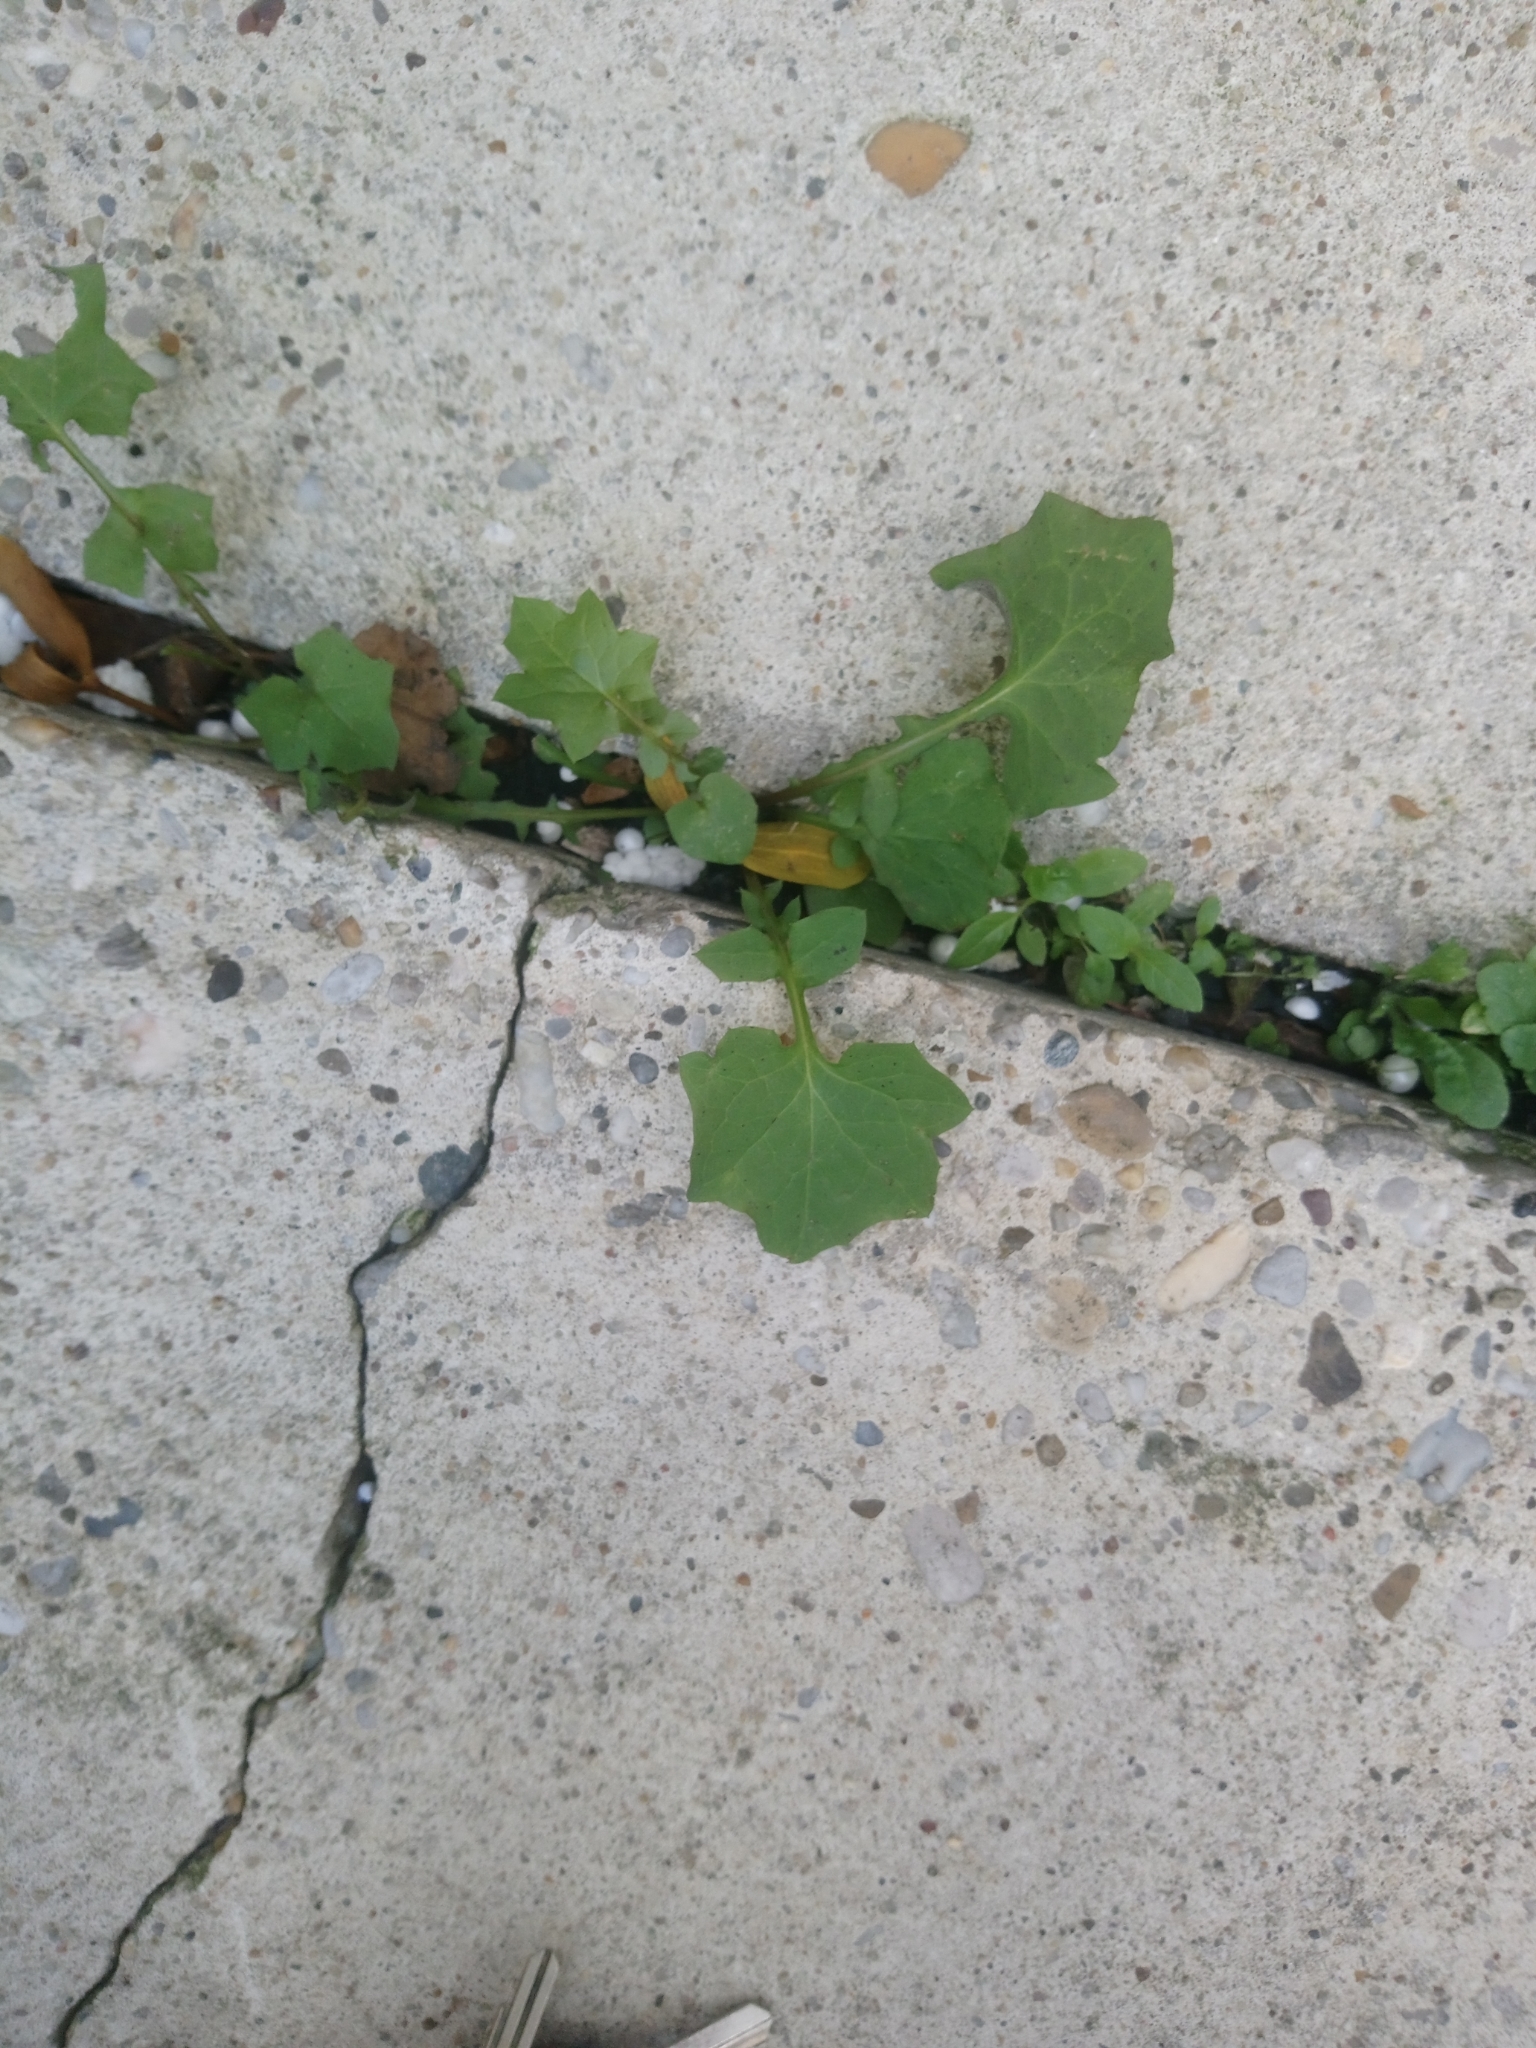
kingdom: Plantae
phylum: Tracheophyta
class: Magnoliopsida
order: Asterales
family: Asteraceae
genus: Mycelis
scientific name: Mycelis muralis
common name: Wall lettuce
